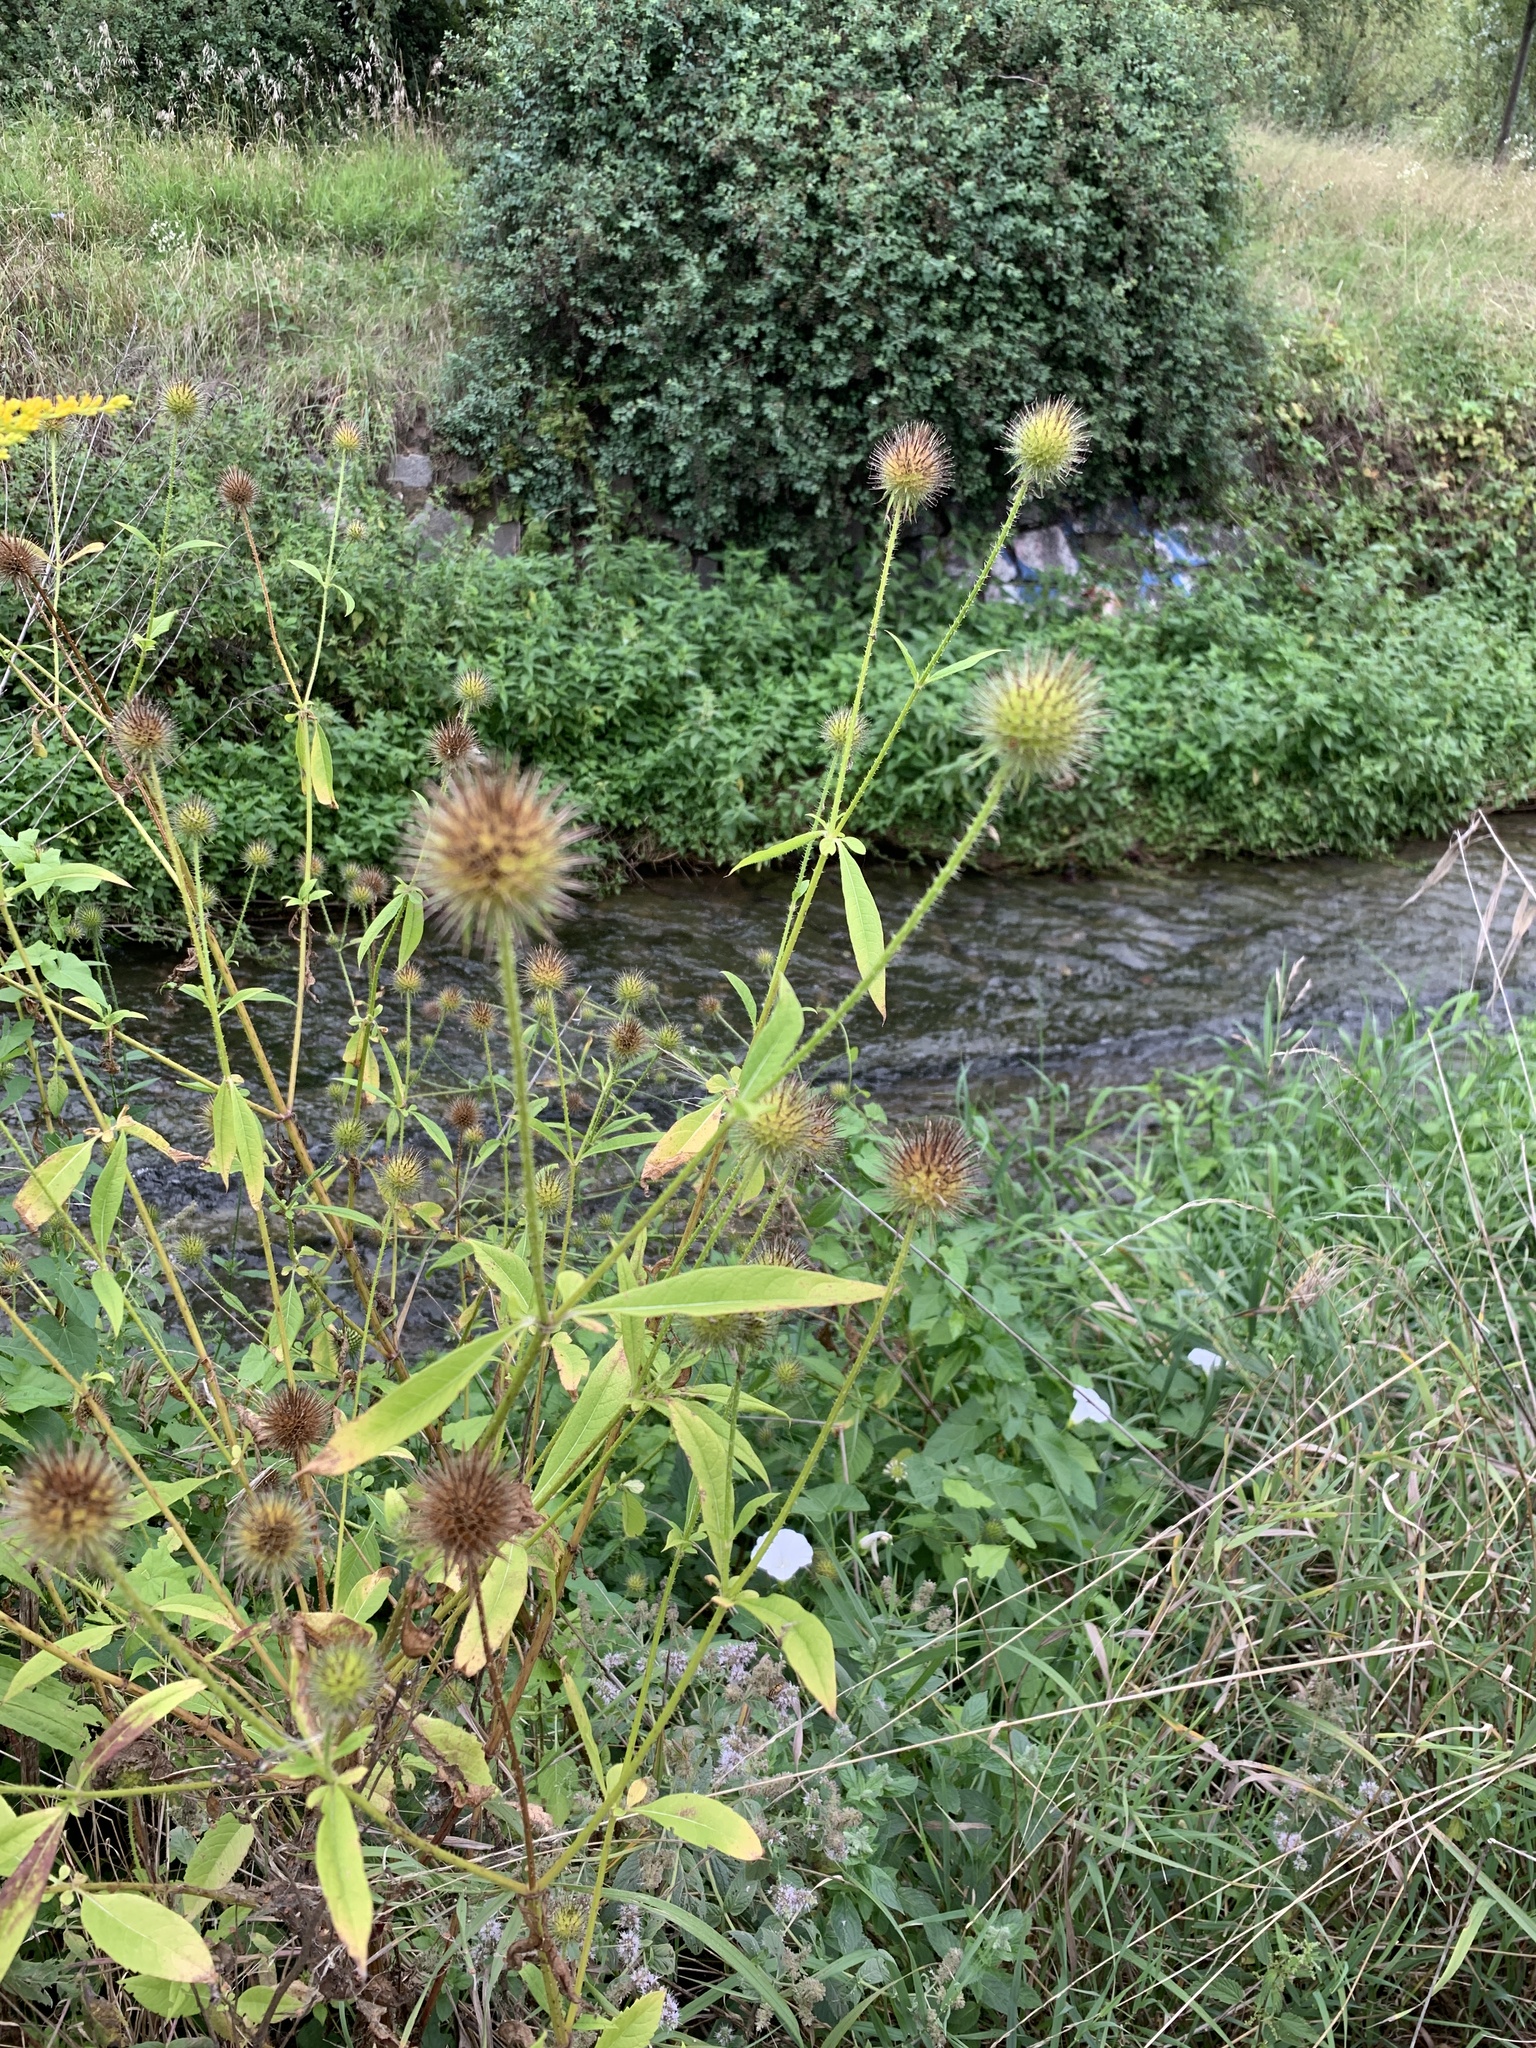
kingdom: Plantae
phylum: Tracheophyta
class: Magnoliopsida
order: Dipsacales
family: Caprifoliaceae
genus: Dipsacus
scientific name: Dipsacus strigosus
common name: Yellow-flowered teasel
